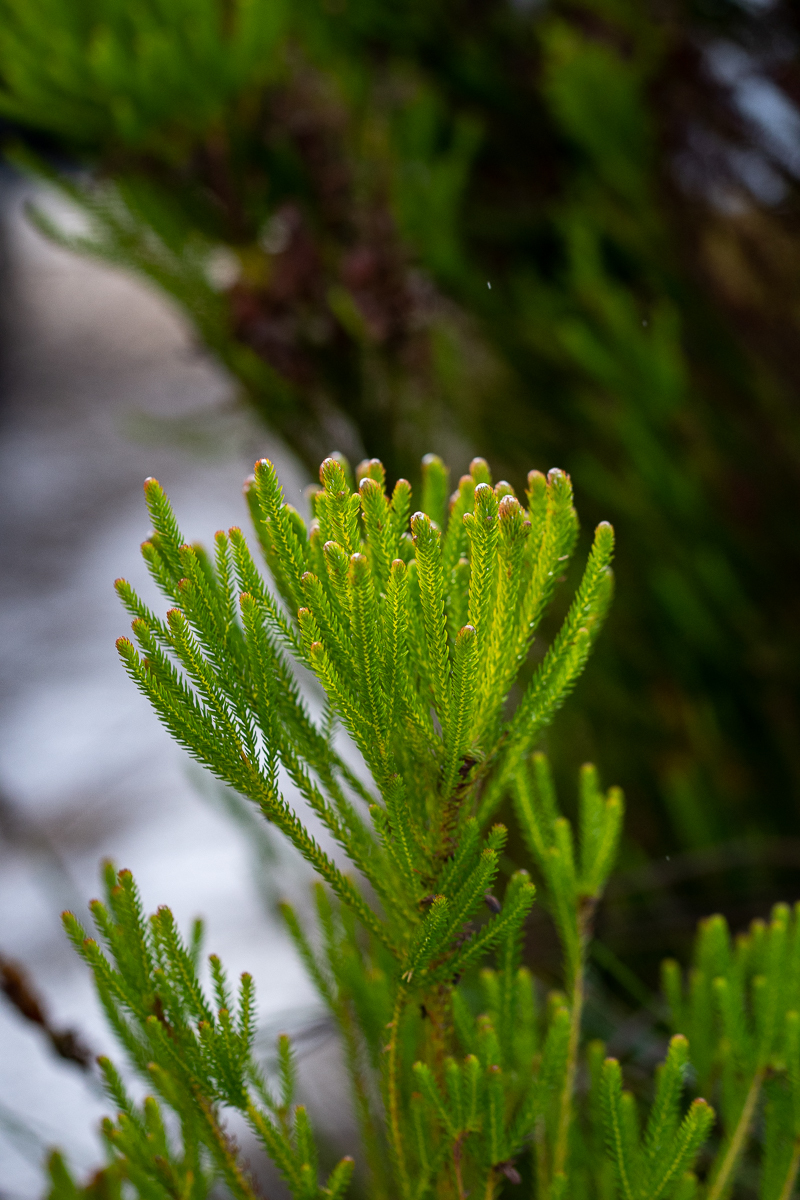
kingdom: Plantae
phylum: Tracheophyta
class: Magnoliopsida
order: Bruniales
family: Bruniaceae
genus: Berzelia
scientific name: Berzelia alopecurioides
